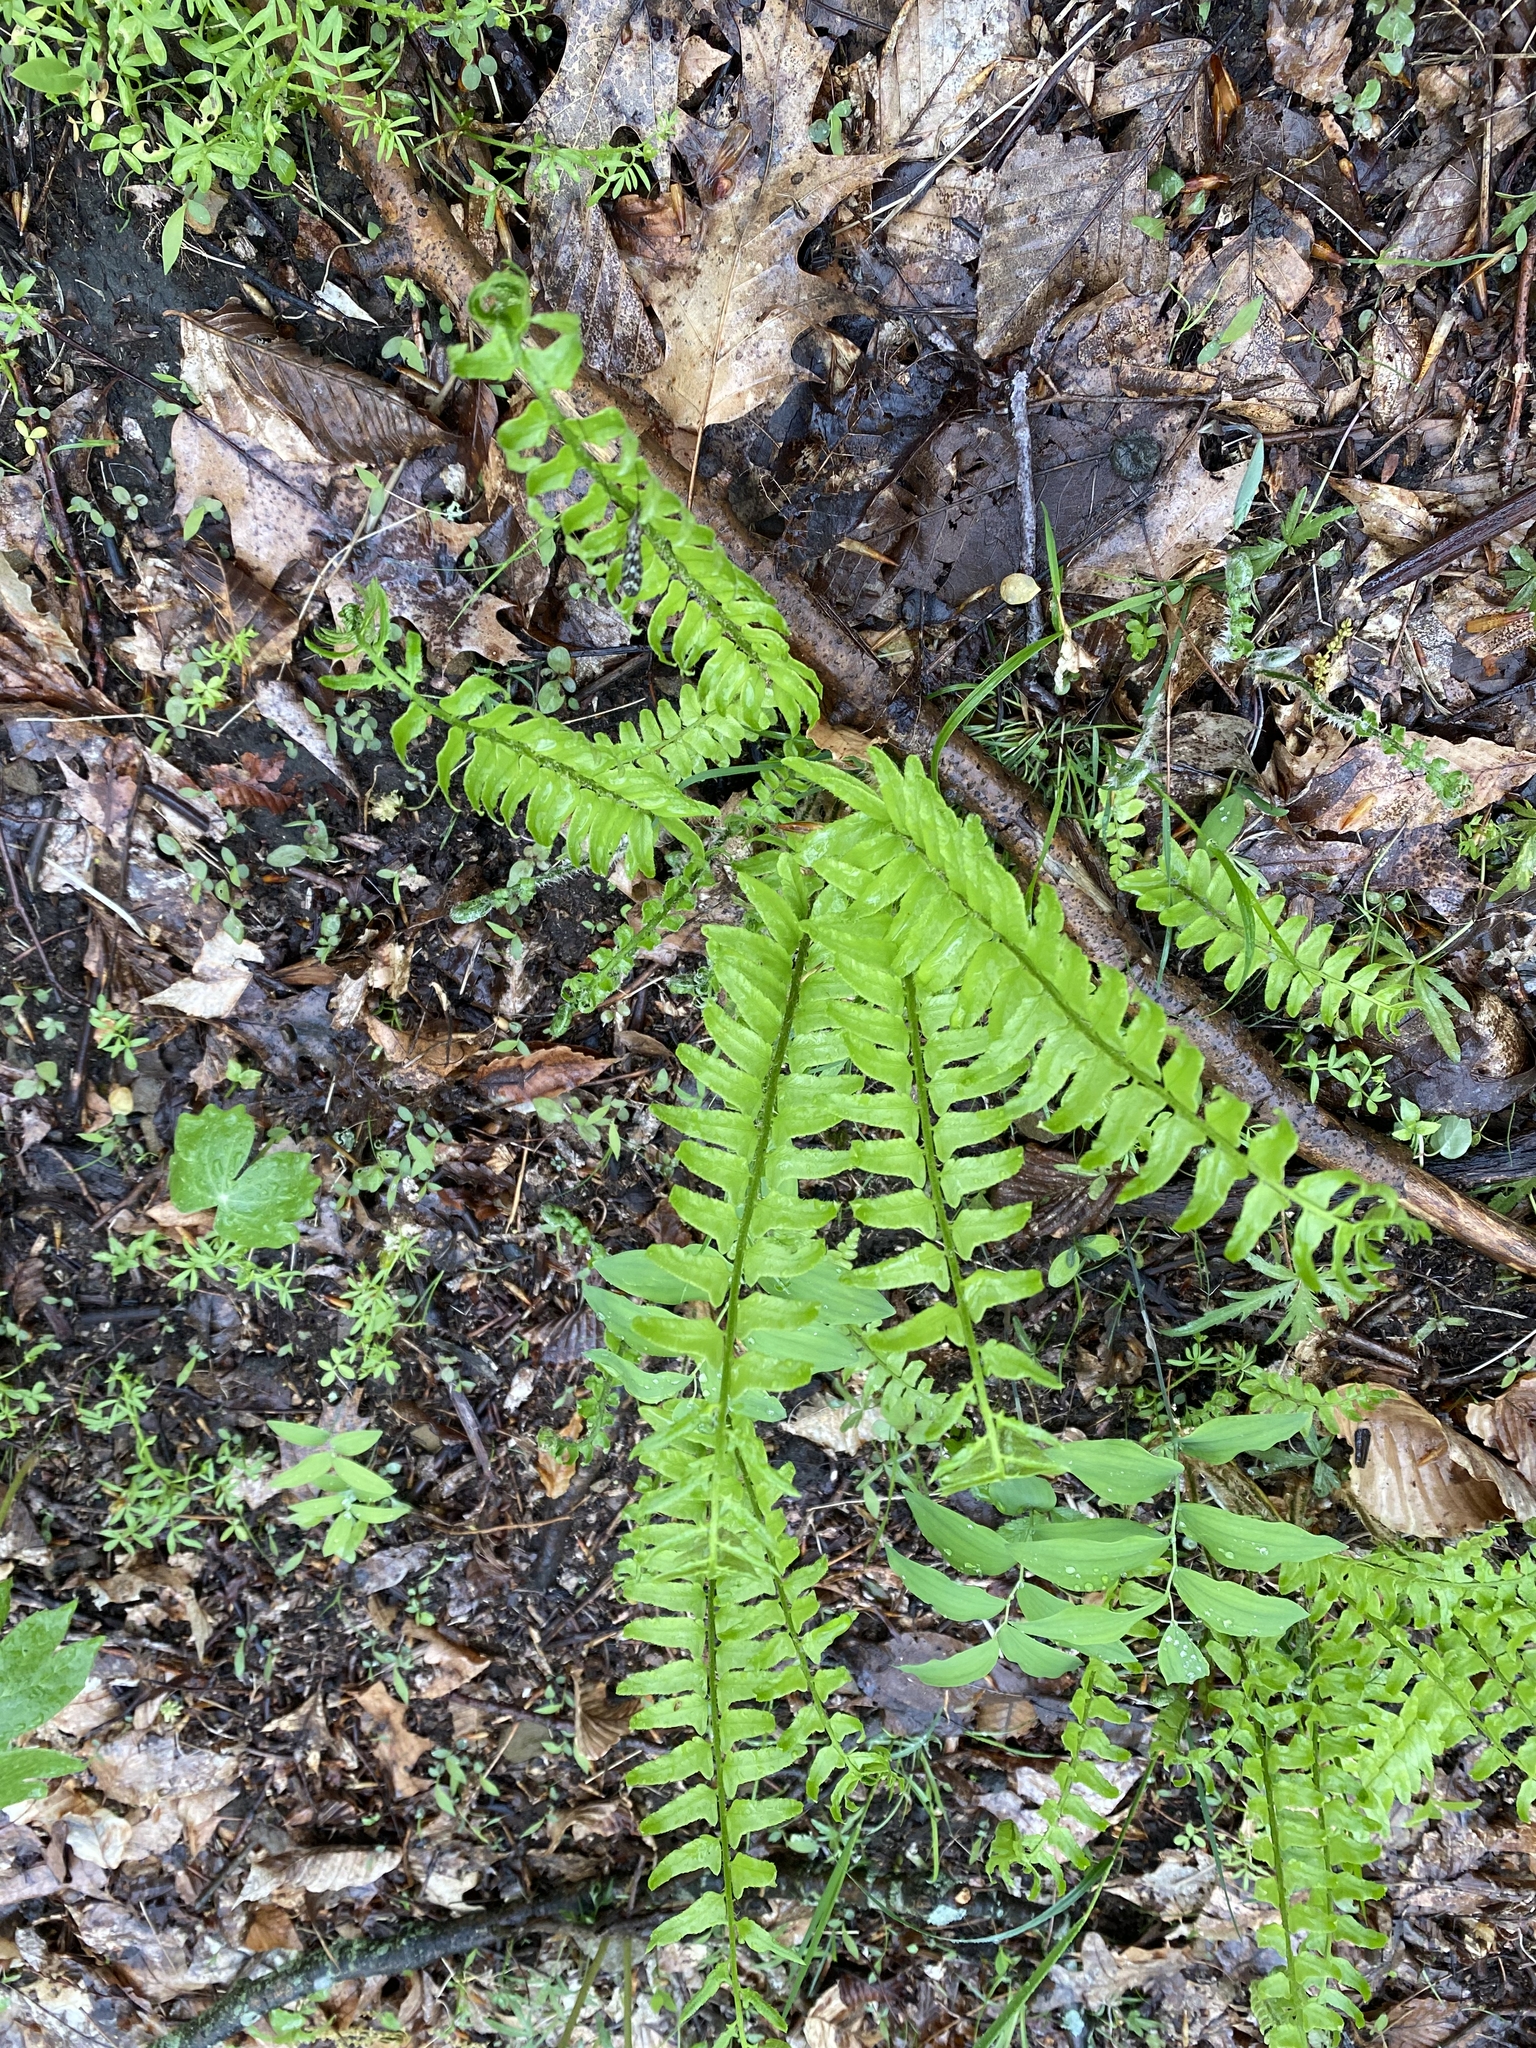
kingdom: Plantae
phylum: Tracheophyta
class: Polypodiopsida
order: Polypodiales
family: Dryopteridaceae
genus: Polystichum
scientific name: Polystichum acrostichoides
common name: Christmas fern
